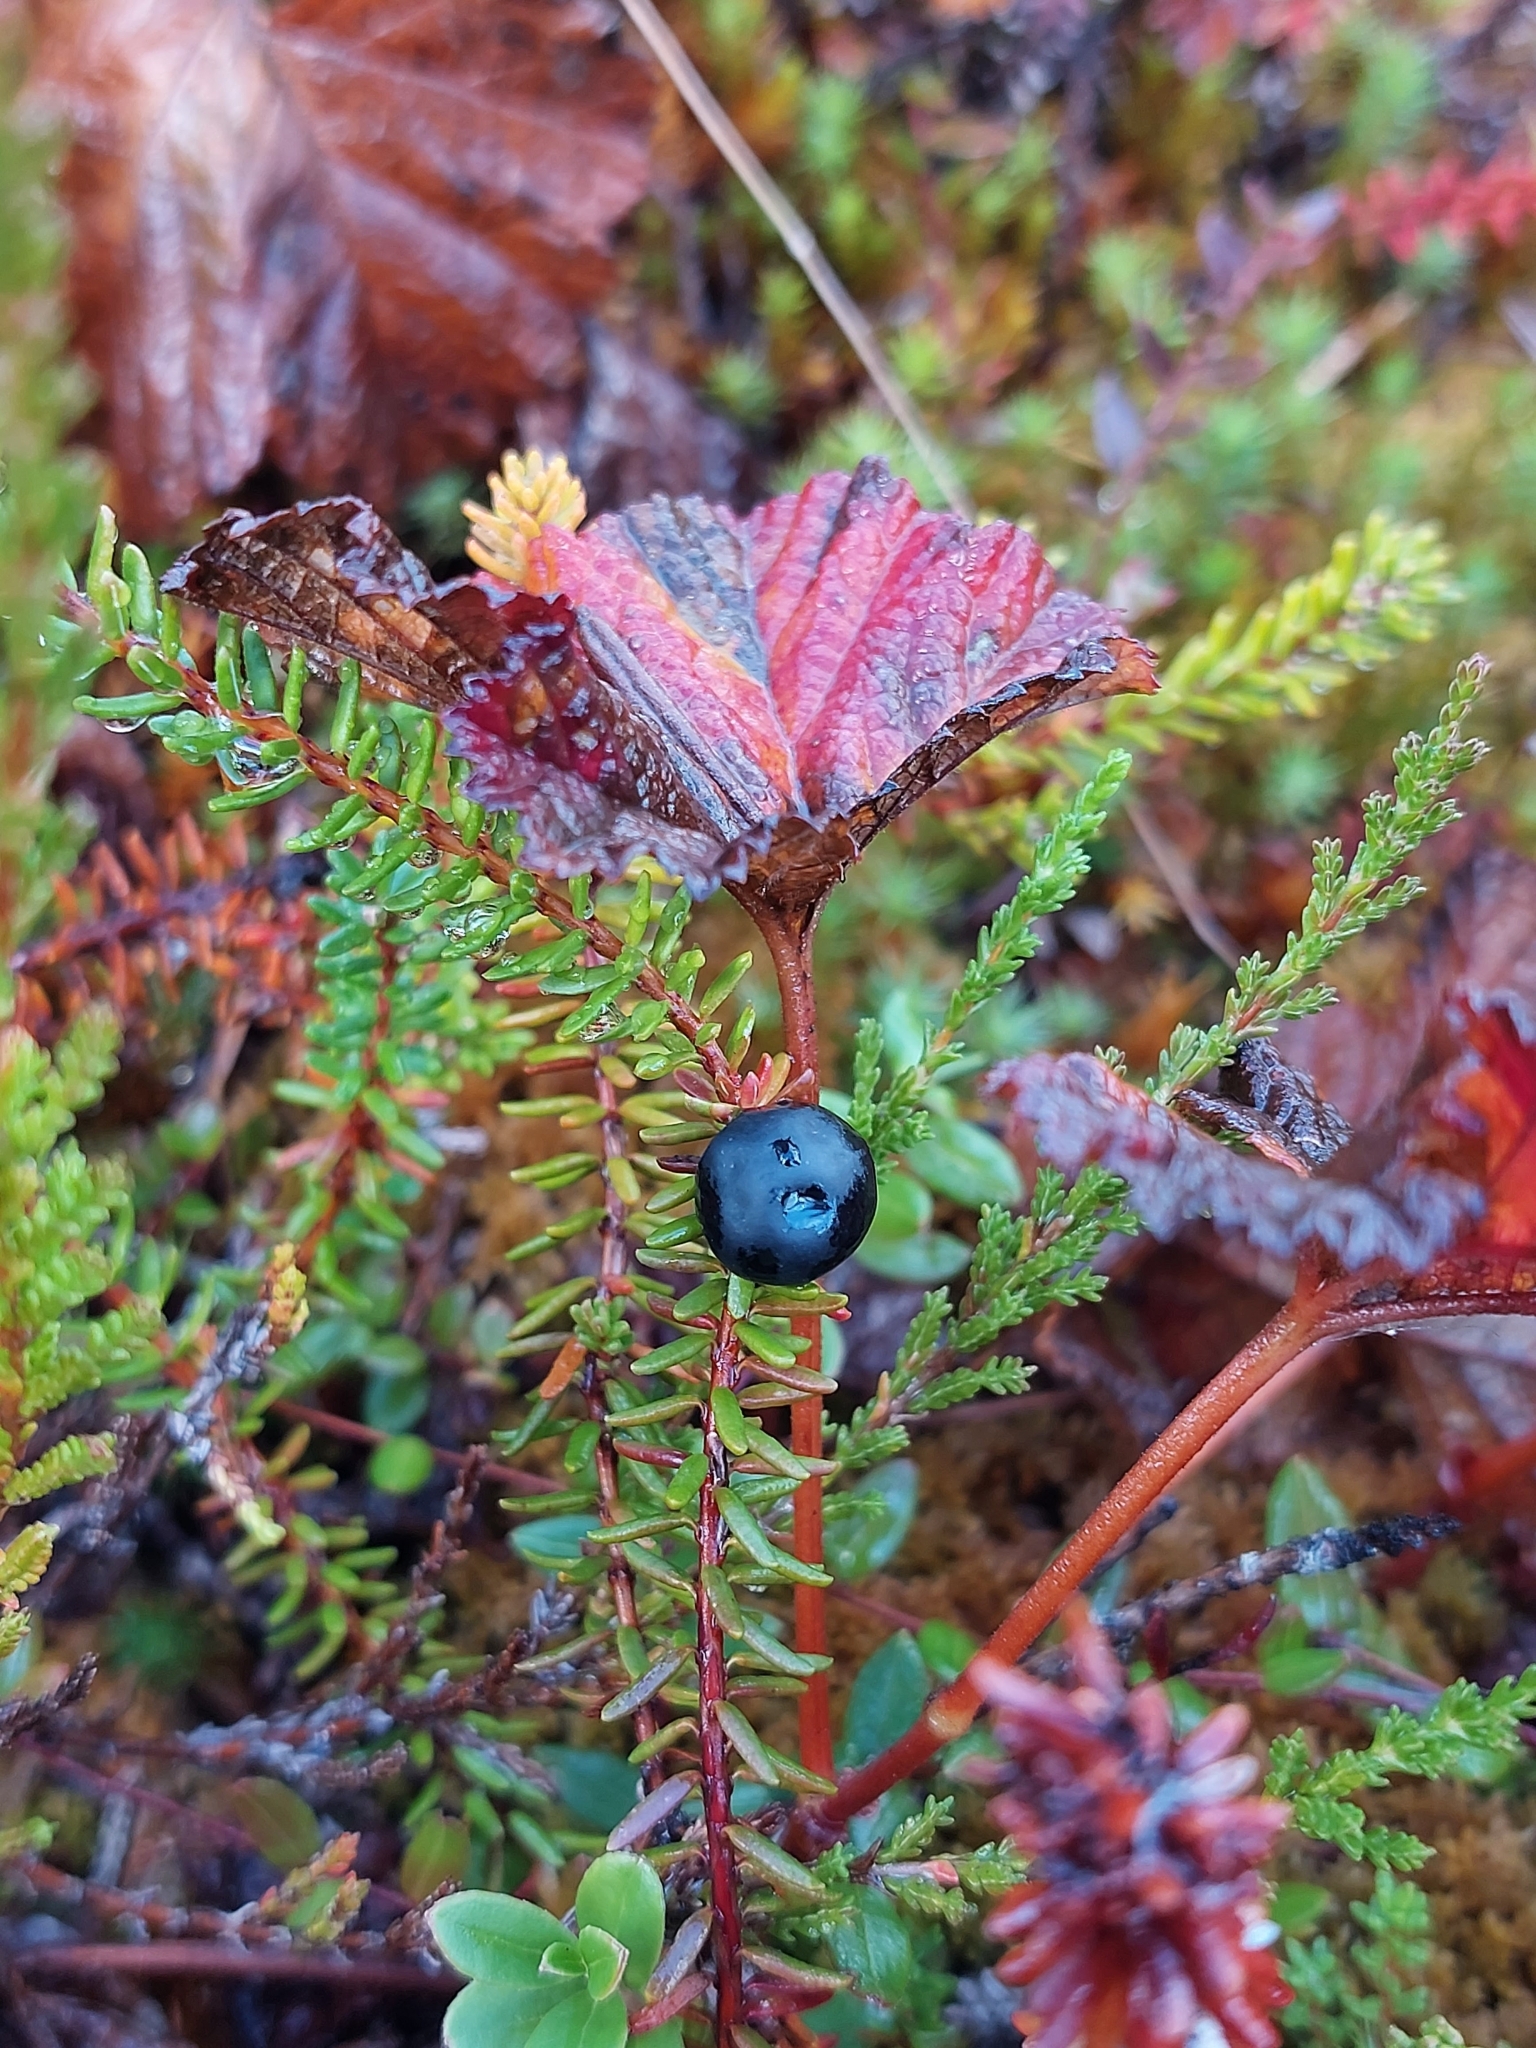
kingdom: Plantae
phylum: Tracheophyta
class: Magnoliopsida
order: Ericales
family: Ericaceae
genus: Empetrum
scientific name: Empetrum nigrum
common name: Black crowberry
